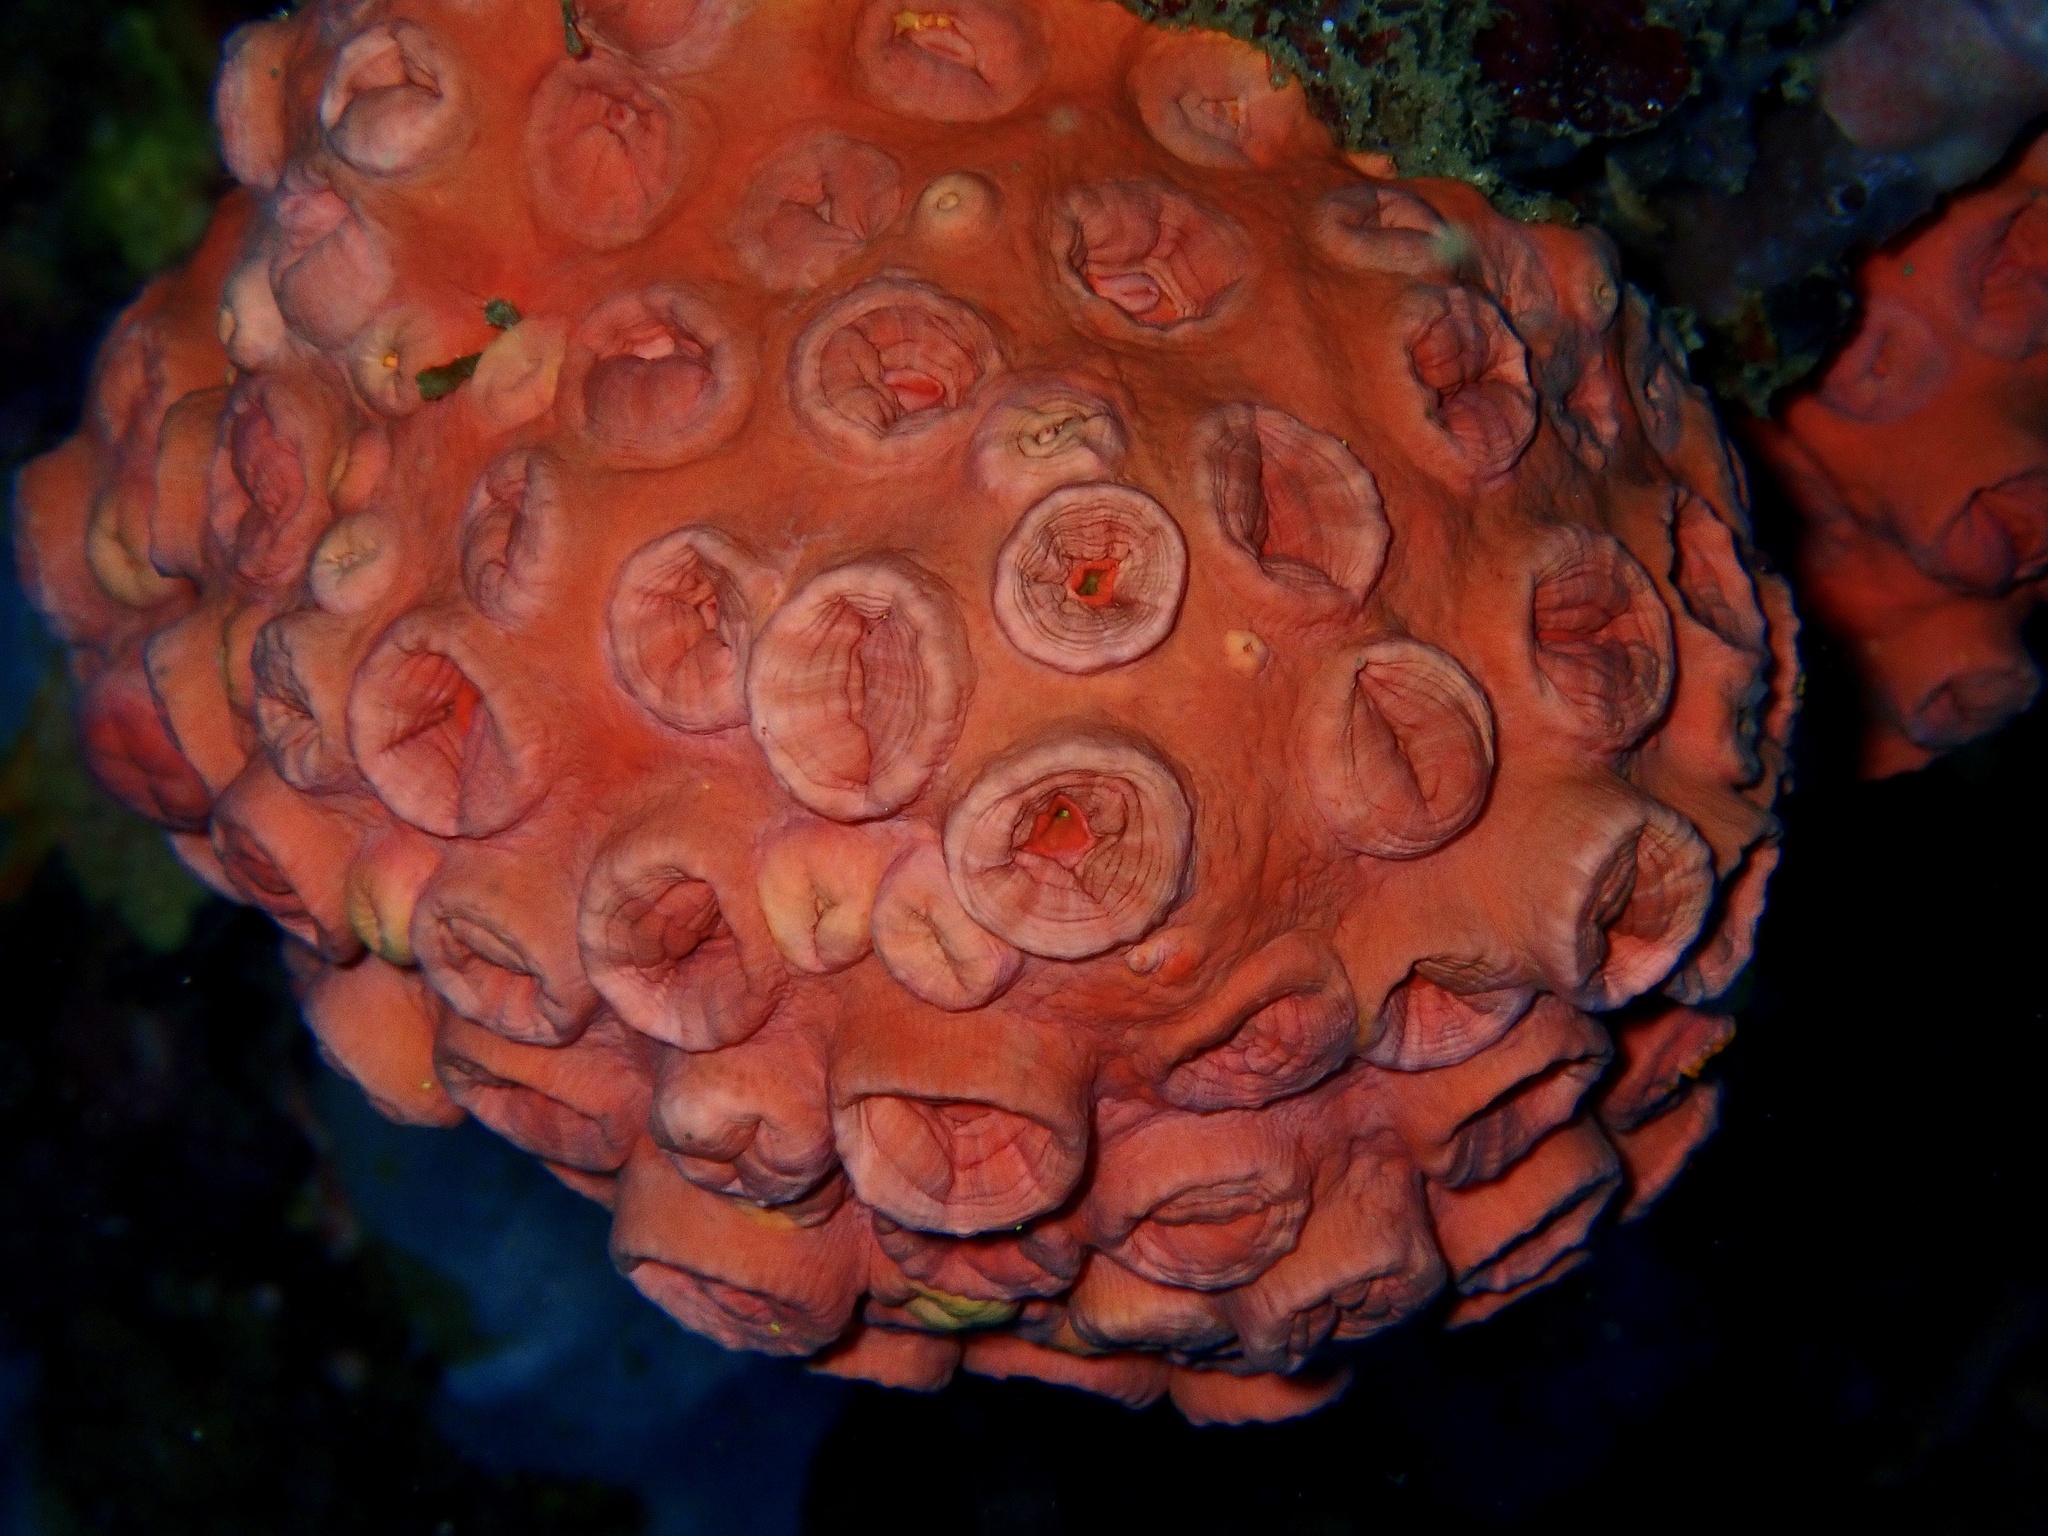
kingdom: Animalia
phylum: Cnidaria
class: Anthozoa
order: Scleractinia
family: Dendrophylliidae
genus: Tubastraea
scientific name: Tubastraea coccinea
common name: Orange cup coral
